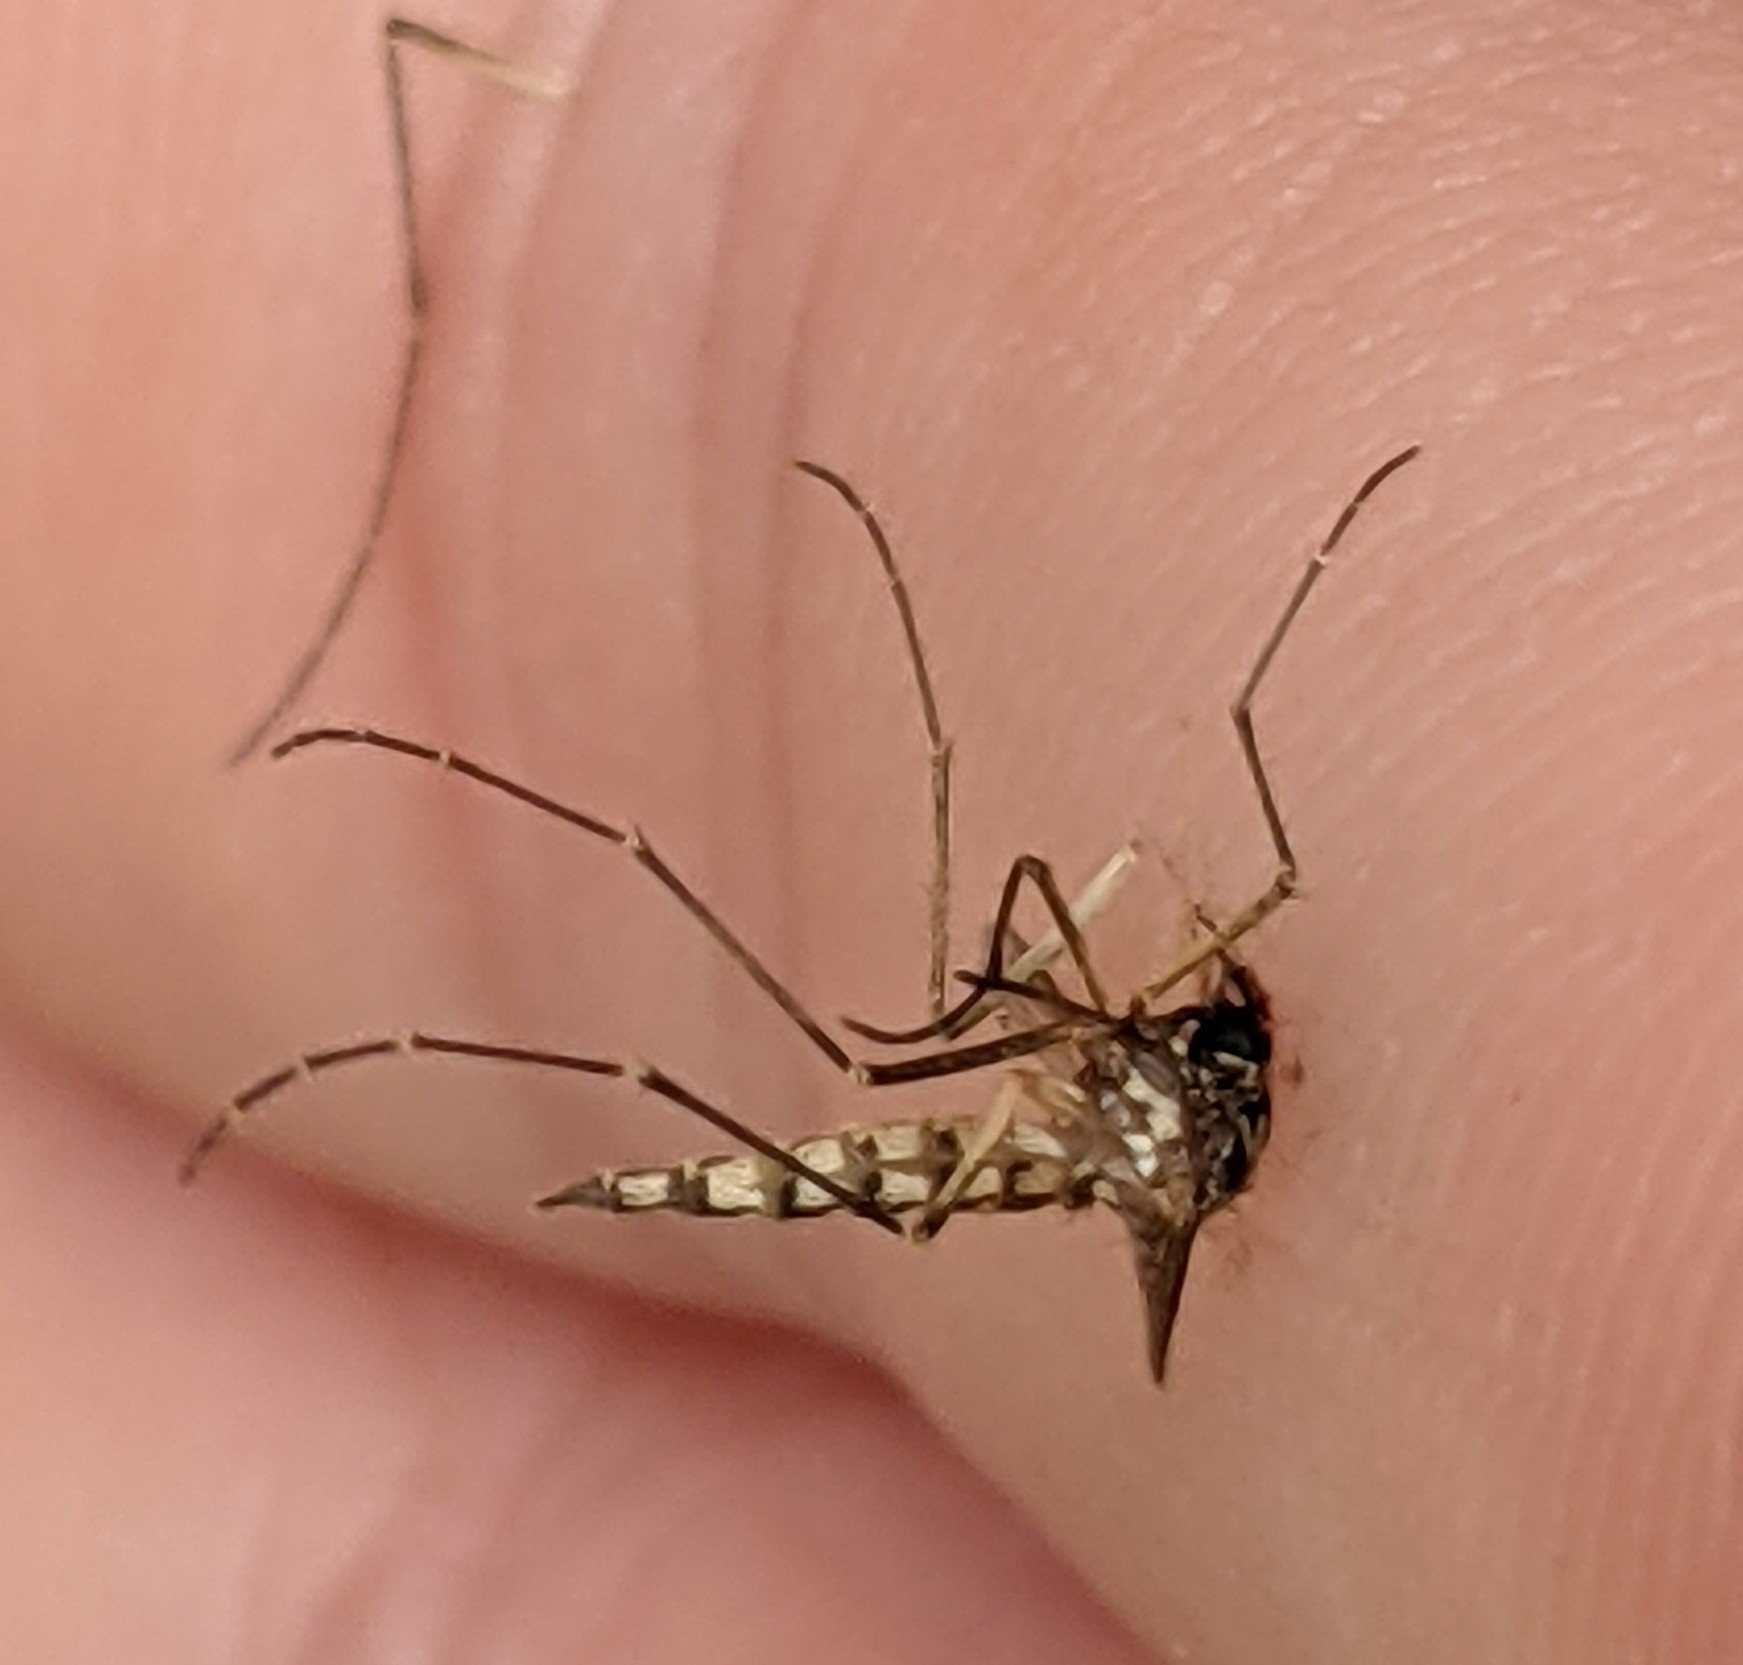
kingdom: Animalia
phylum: Arthropoda
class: Insecta
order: Diptera
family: Culicidae
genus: Aedes
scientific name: Aedes vexans
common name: Inland floodwater mosquito
